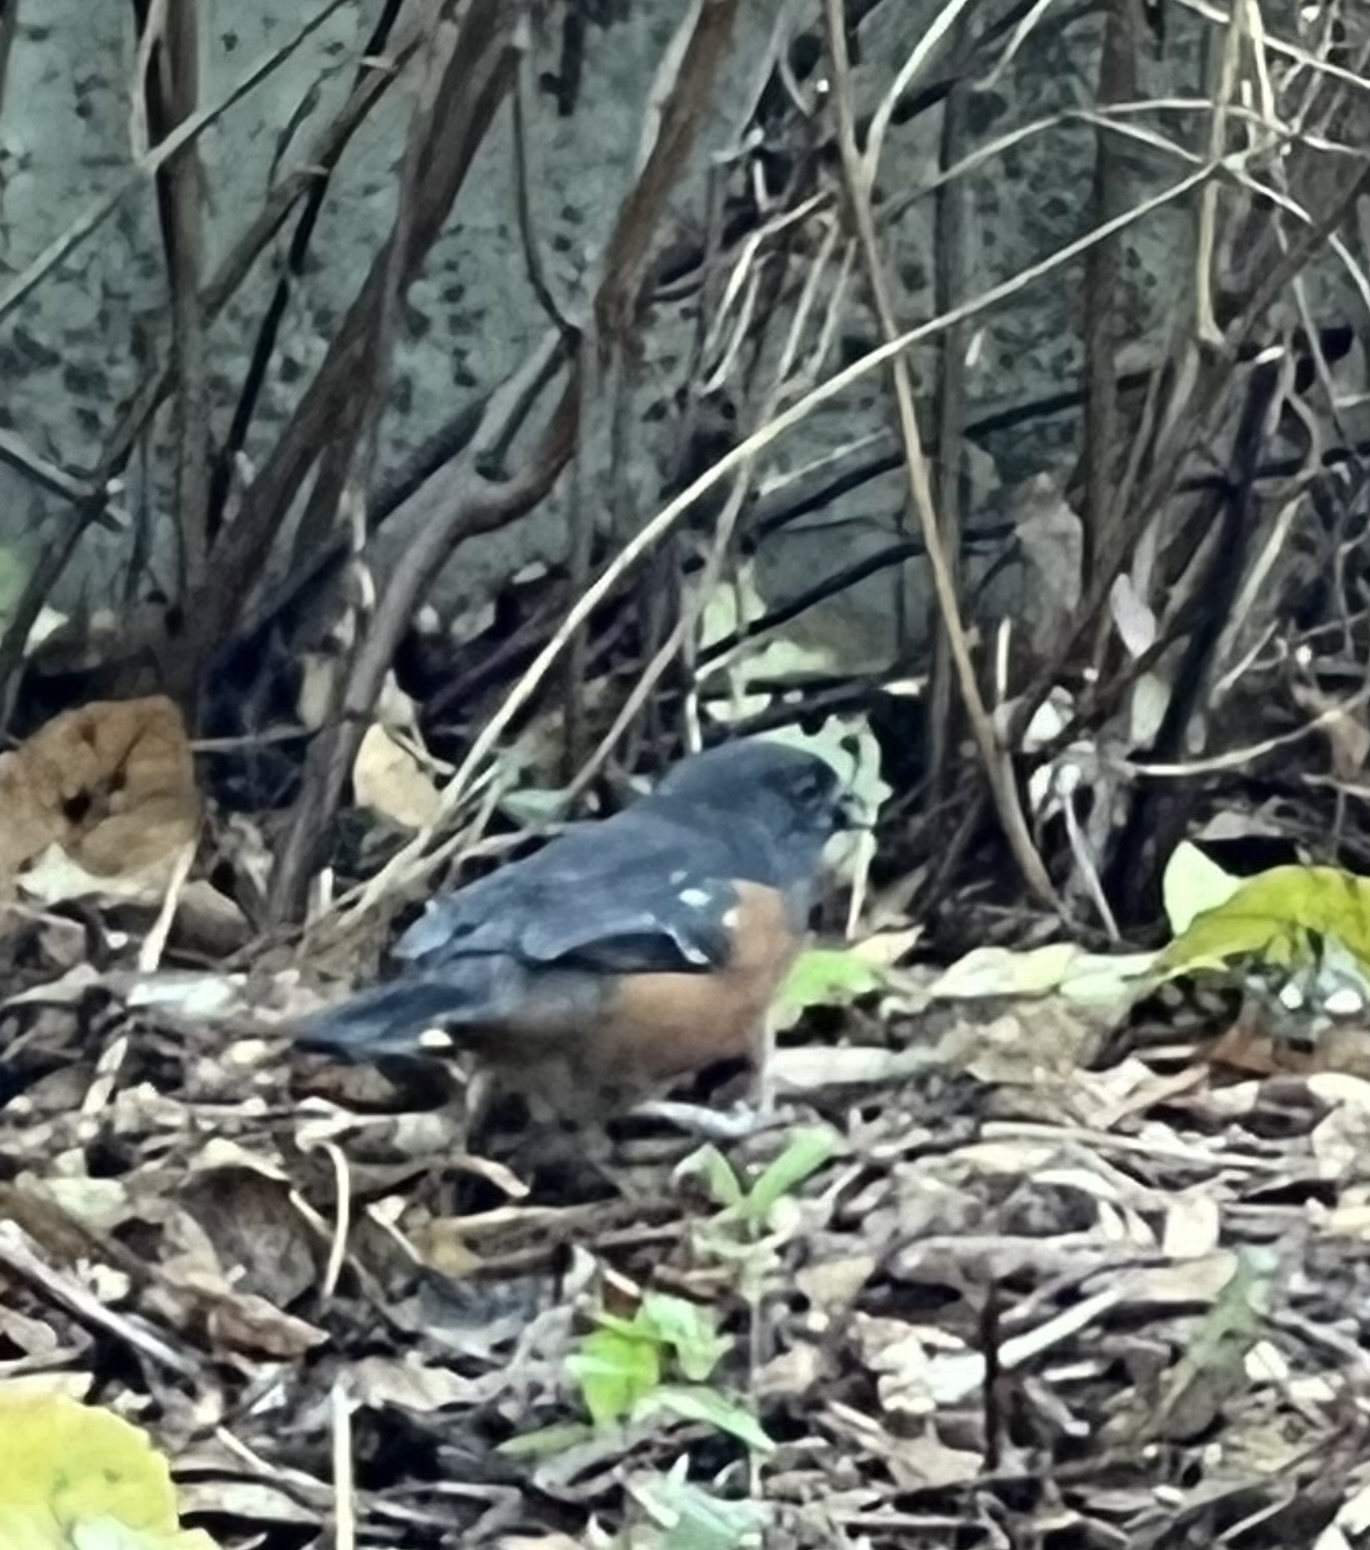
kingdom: Animalia
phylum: Chordata
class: Aves
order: Passeriformes
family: Passerellidae
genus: Pipilo
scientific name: Pipilo maculatus
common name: Spotted towhee
